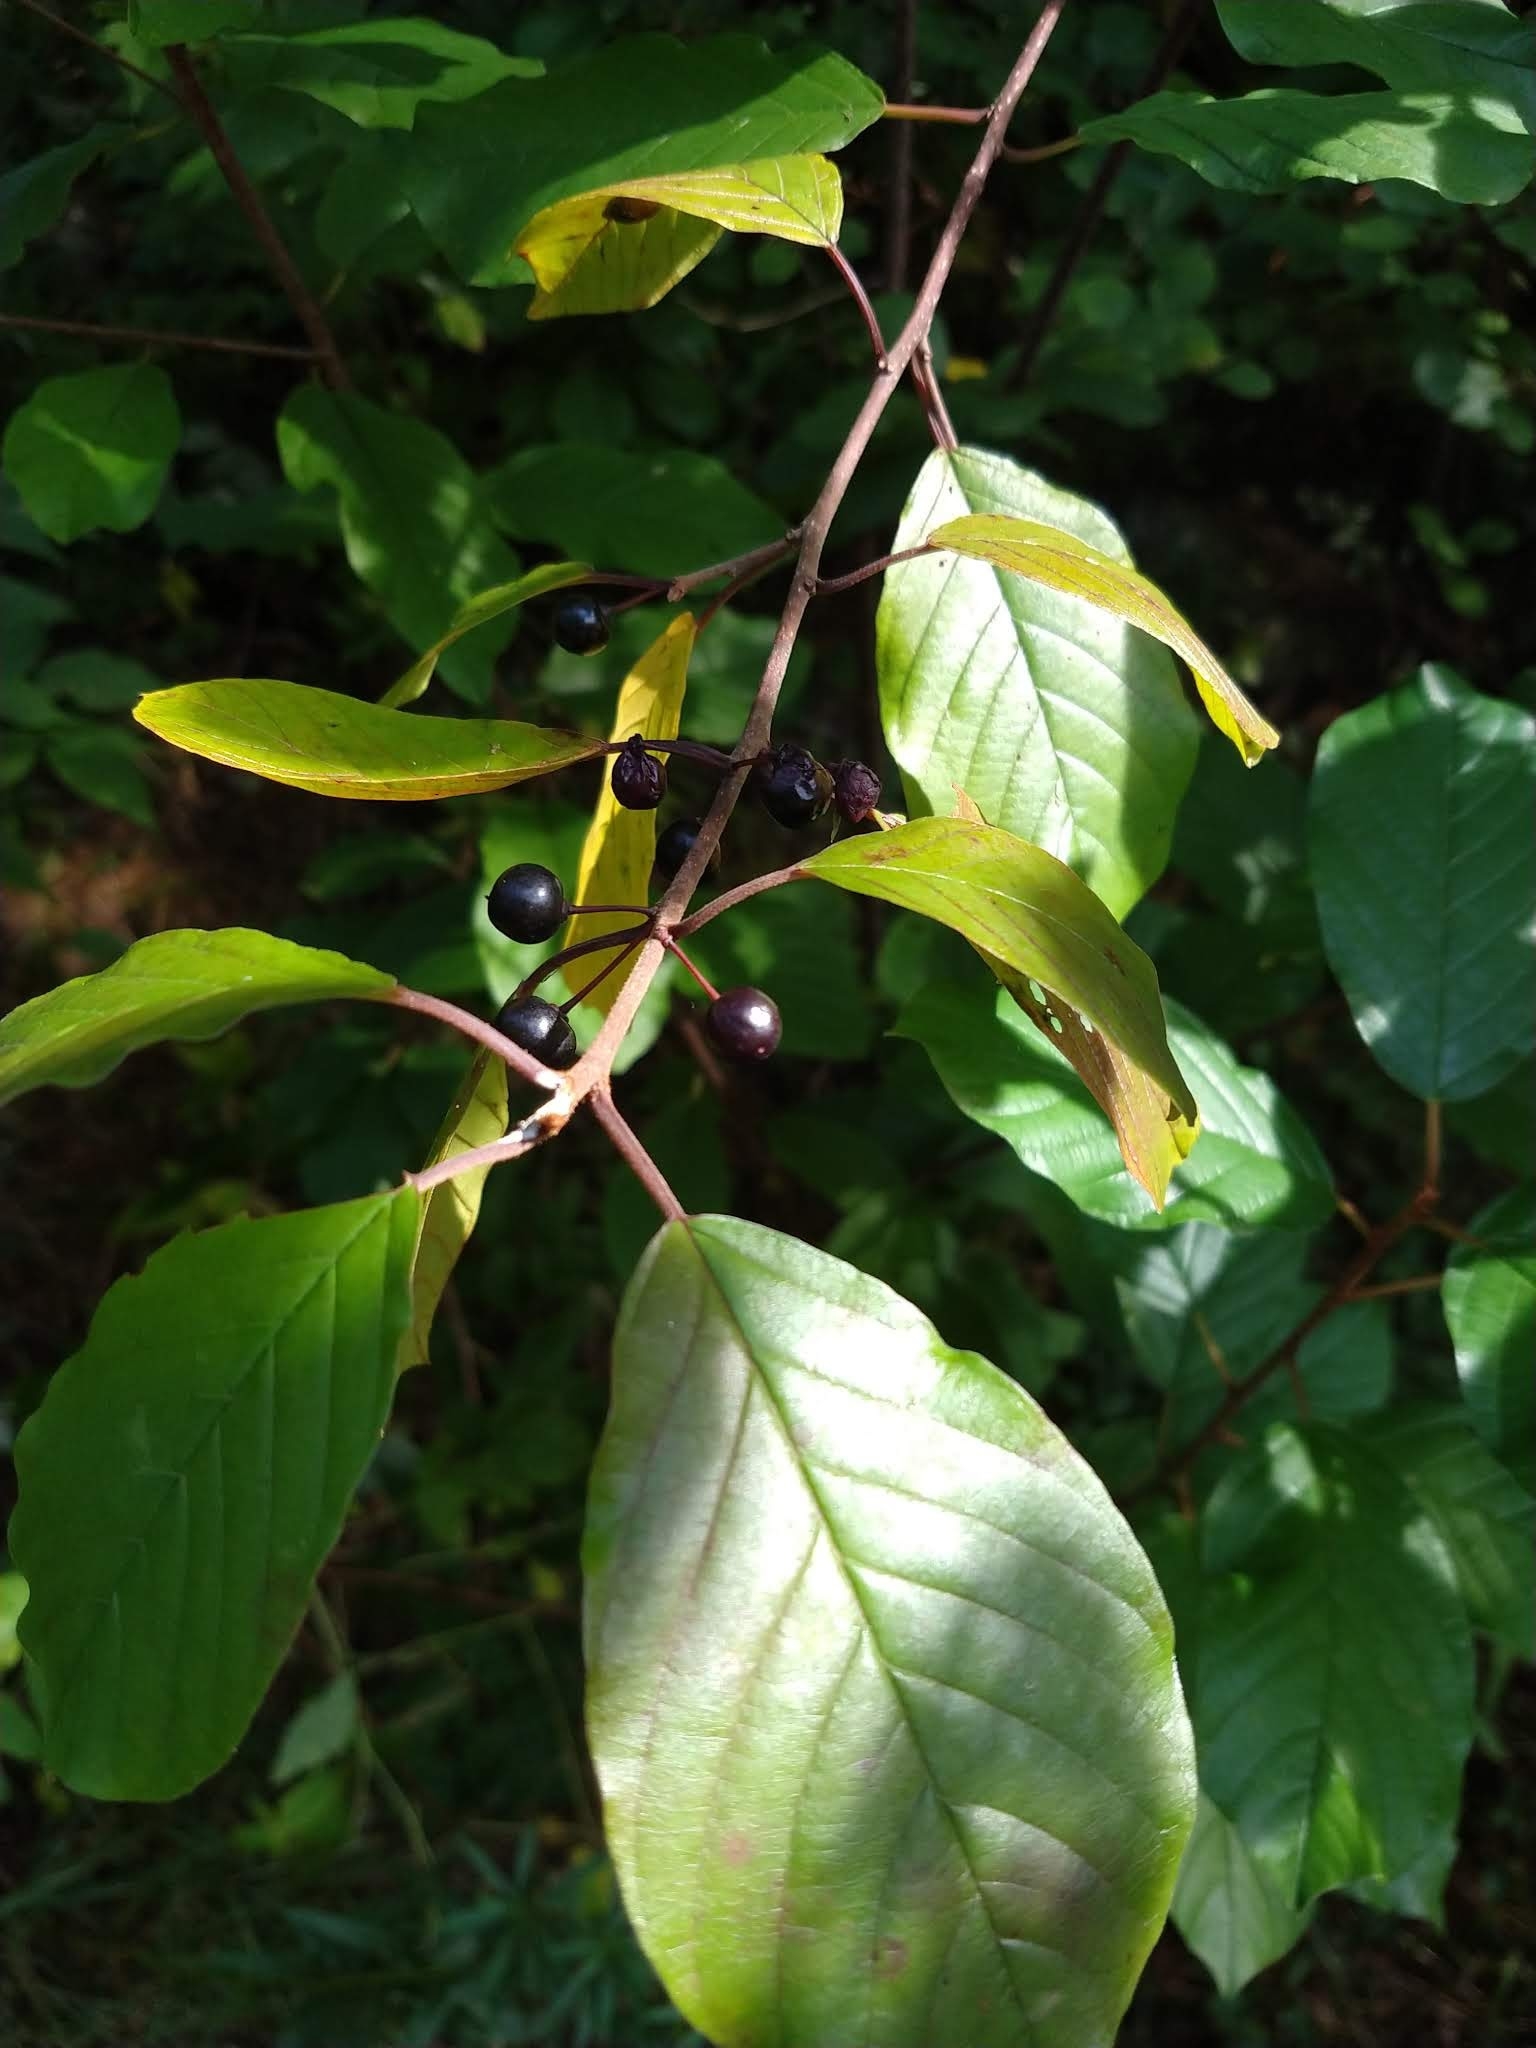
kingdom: Plantae
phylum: Tracheophyta
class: Magnoliopsida
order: Rosales
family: Rhamnaceae
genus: Frangula
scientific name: Frangula alnus
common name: Alder buckthorn
